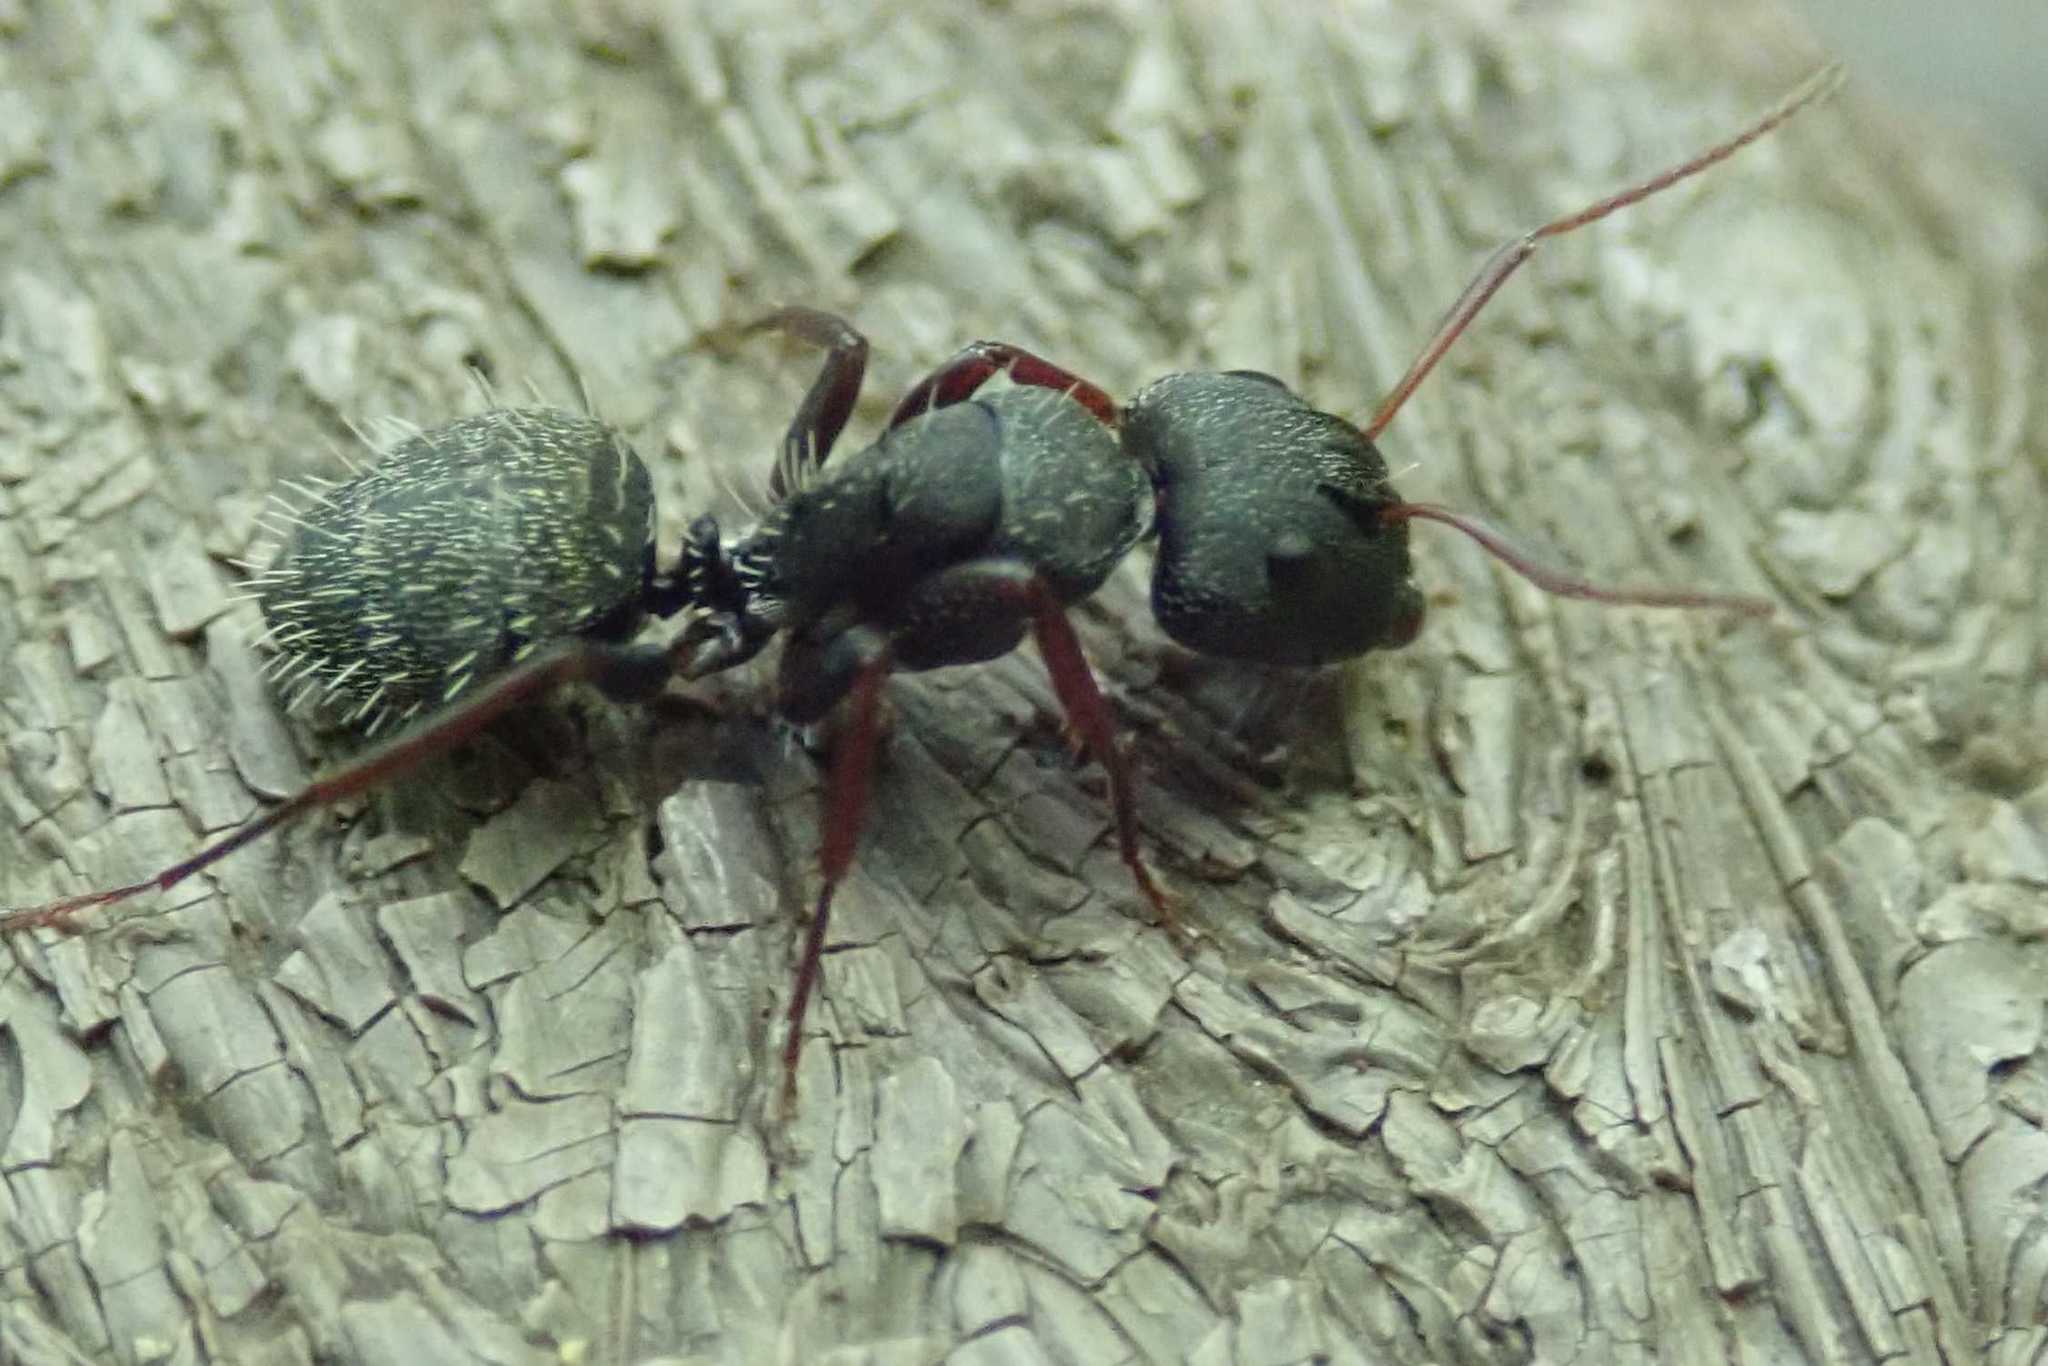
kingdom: Animalia
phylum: Arthropoda
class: Insecta
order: Hymenoptera
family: Formicidae
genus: Camponotus
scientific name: Camponotus auropubens
